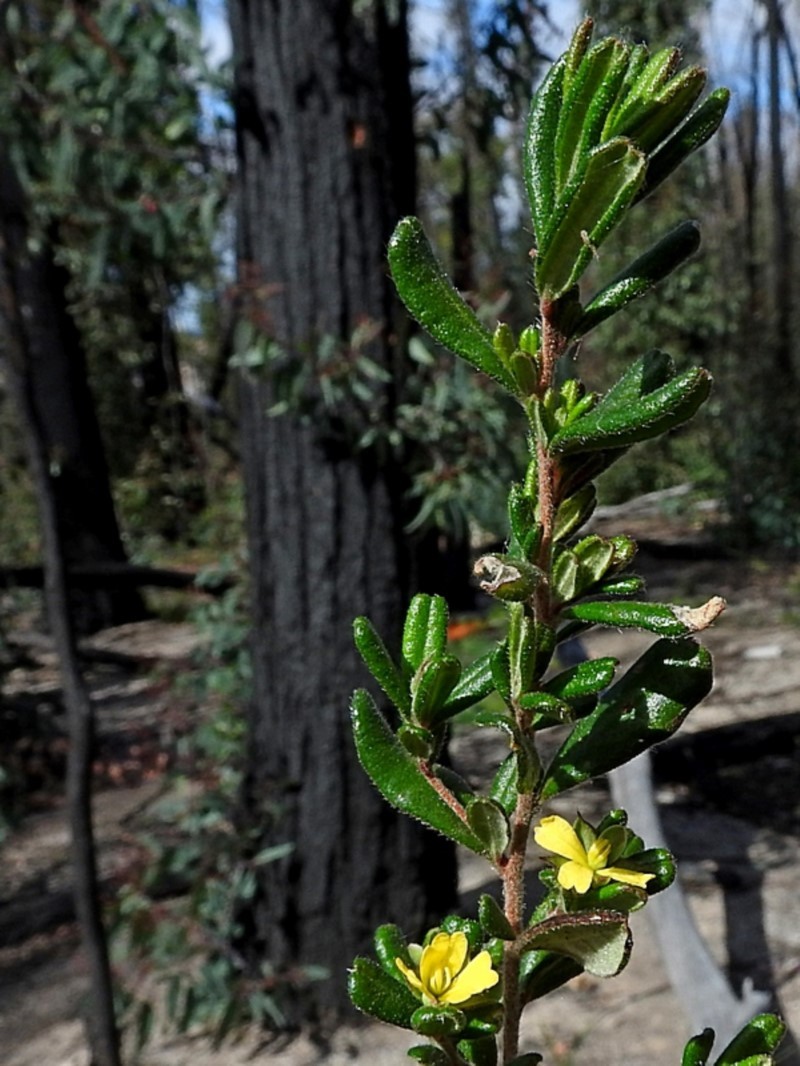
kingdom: Plantae
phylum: Tracheophyta
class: Magnoliopsida
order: Dilleniales
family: Dilleniaceae
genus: Hibbertia
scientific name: Hibbertia aspera
